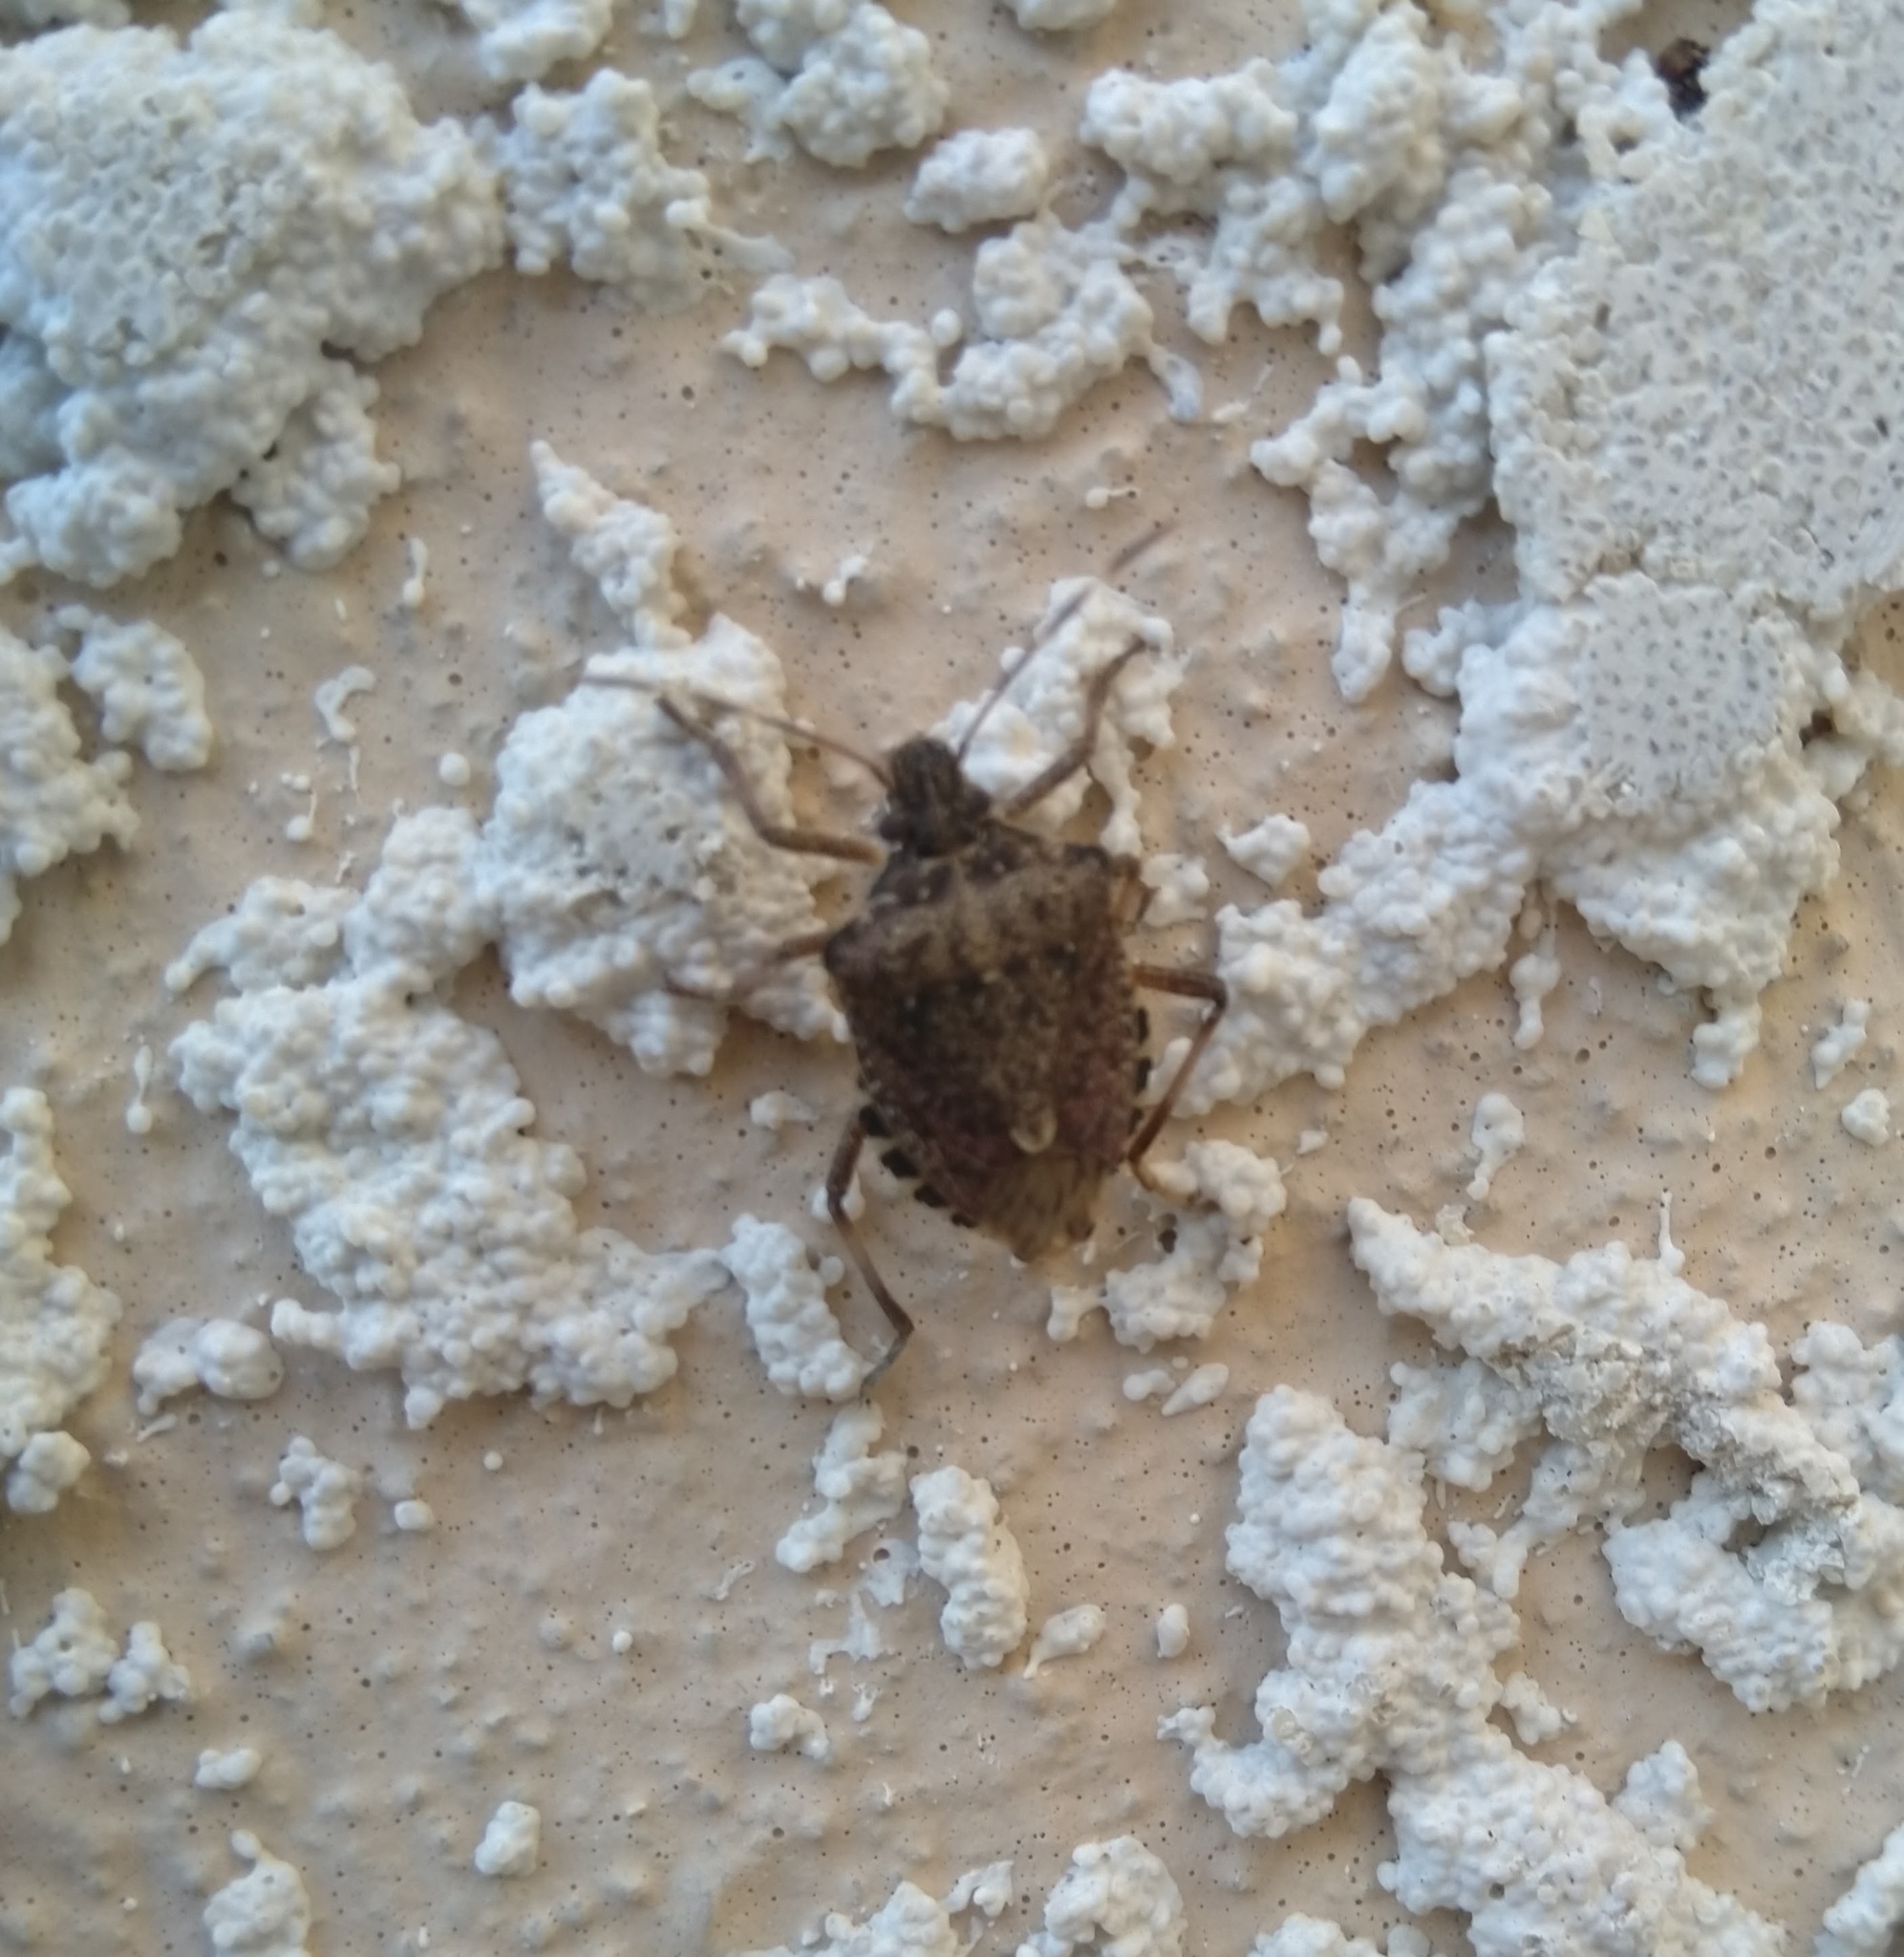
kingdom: Animalia
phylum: Arthropoda
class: Insecta
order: Hemiptera
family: Pentatomidae
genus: Halyomorpha
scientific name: Halyomorpha halys
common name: Brown marmorated stink bug
